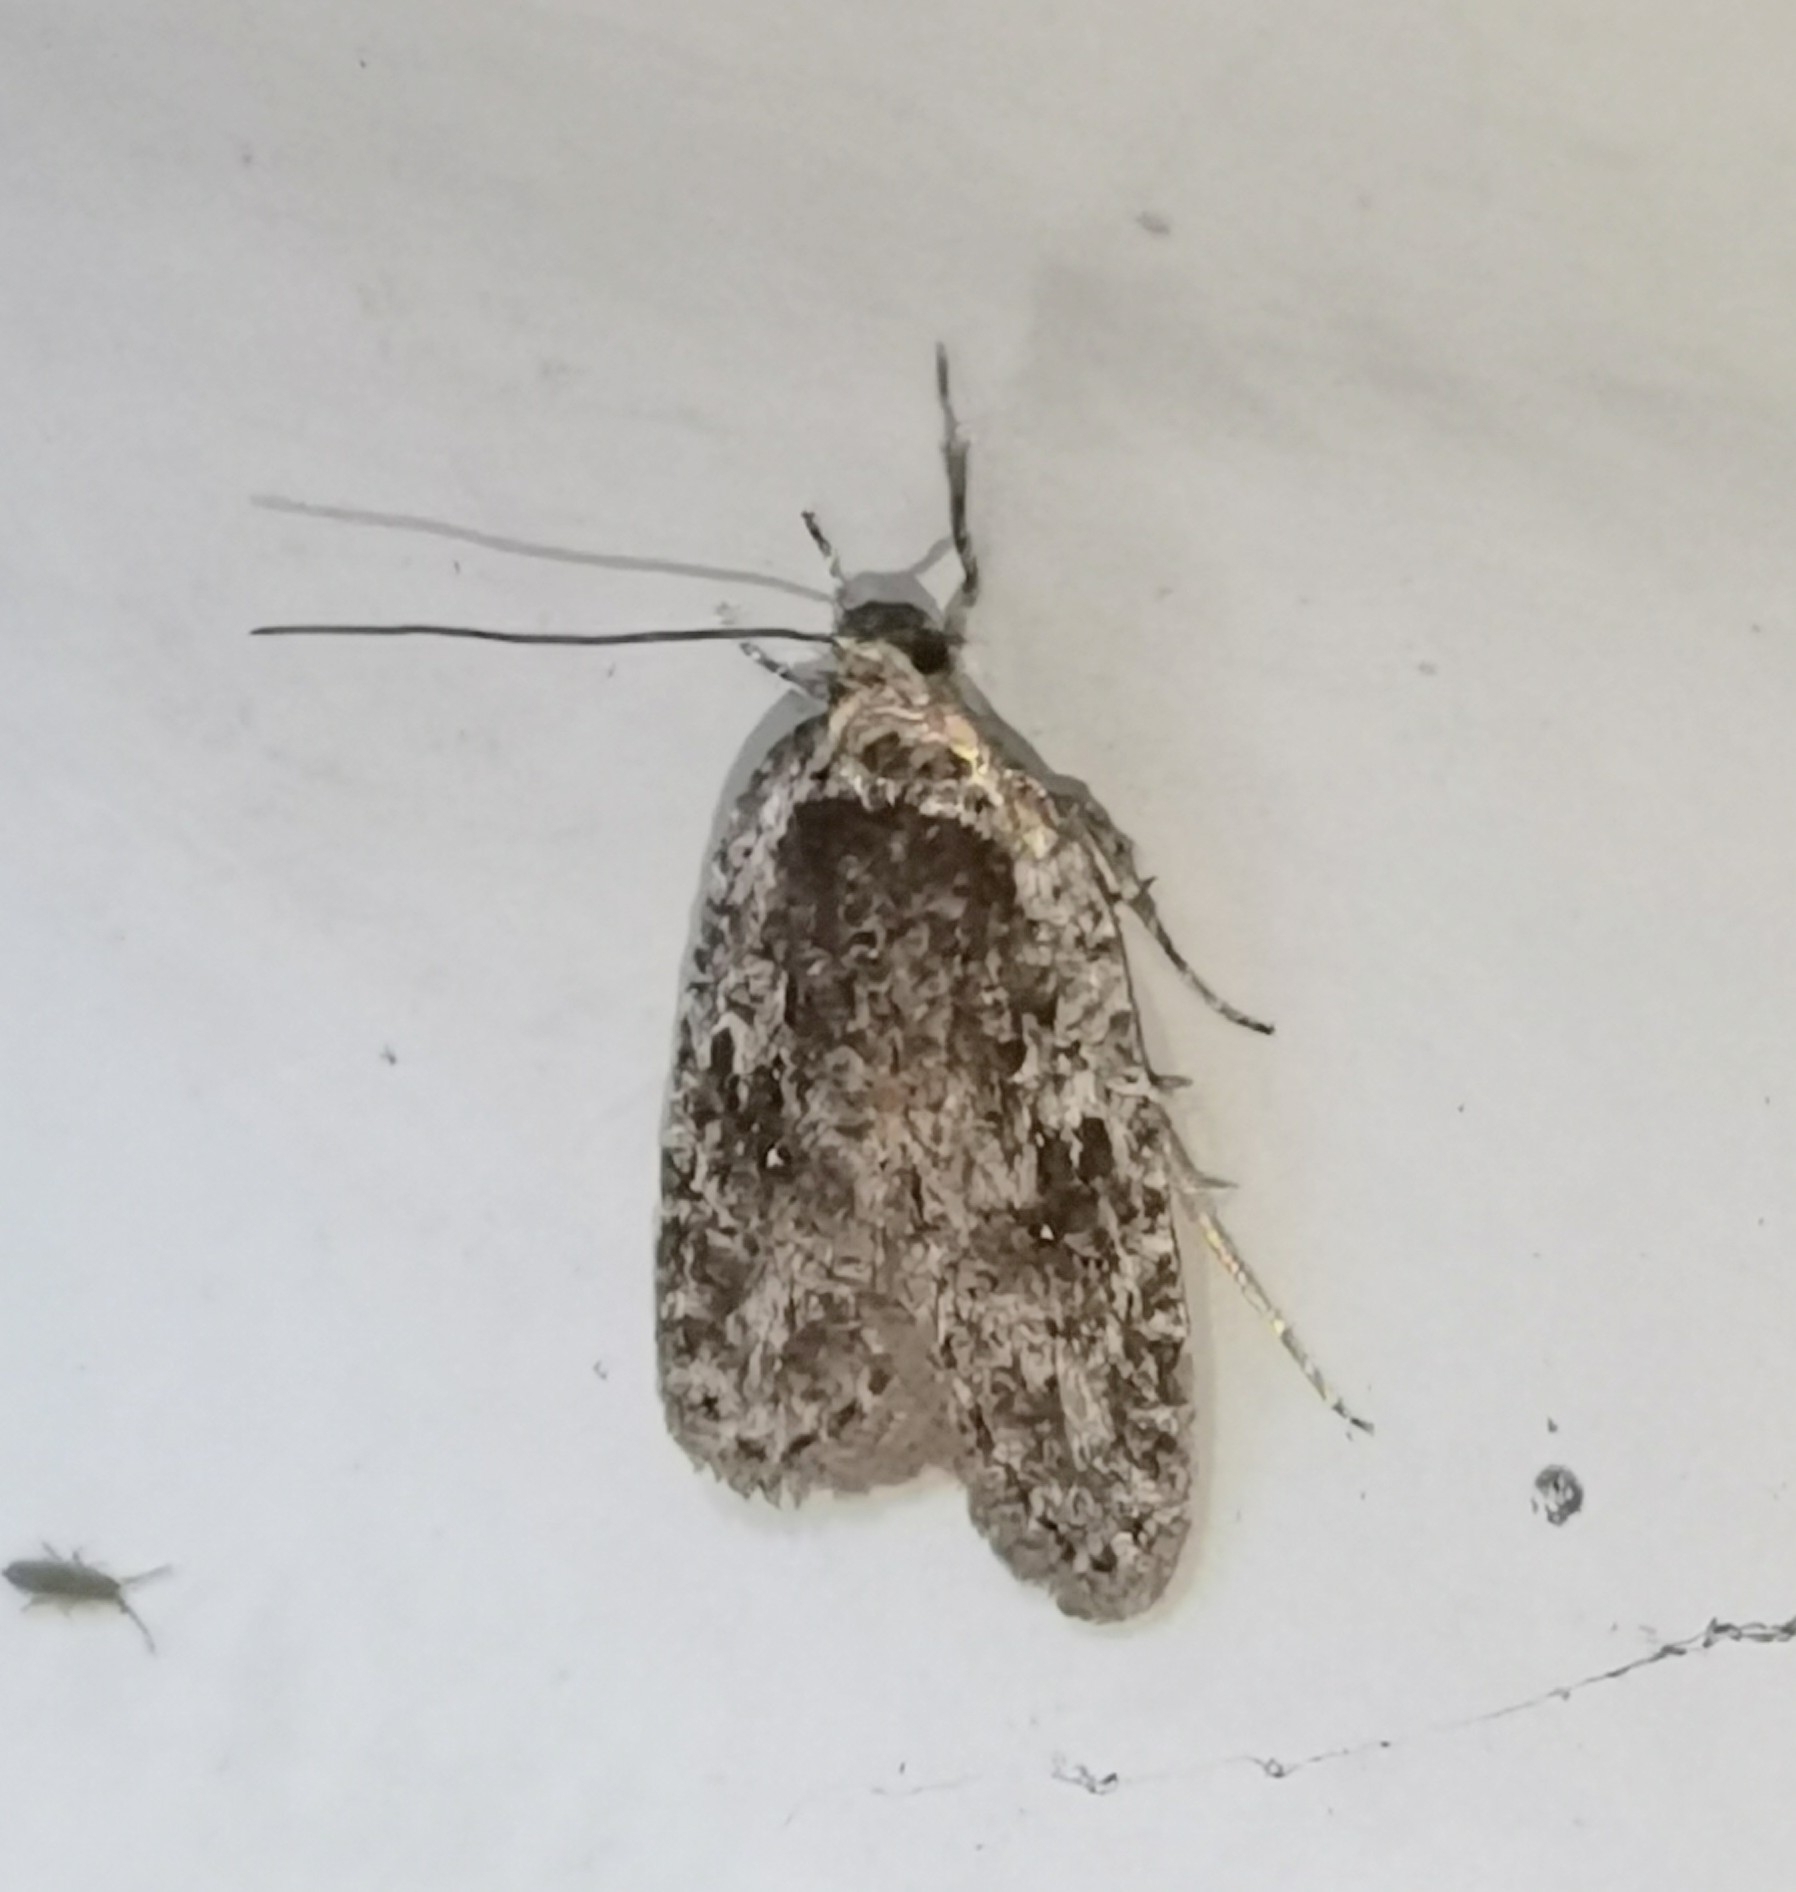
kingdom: Animalia
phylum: Arthropoda
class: Insecta
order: Lepidoptera
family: Depressariidae
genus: Exaeretia
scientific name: Exaeretia ciniflonella
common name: Scotch flat-body
